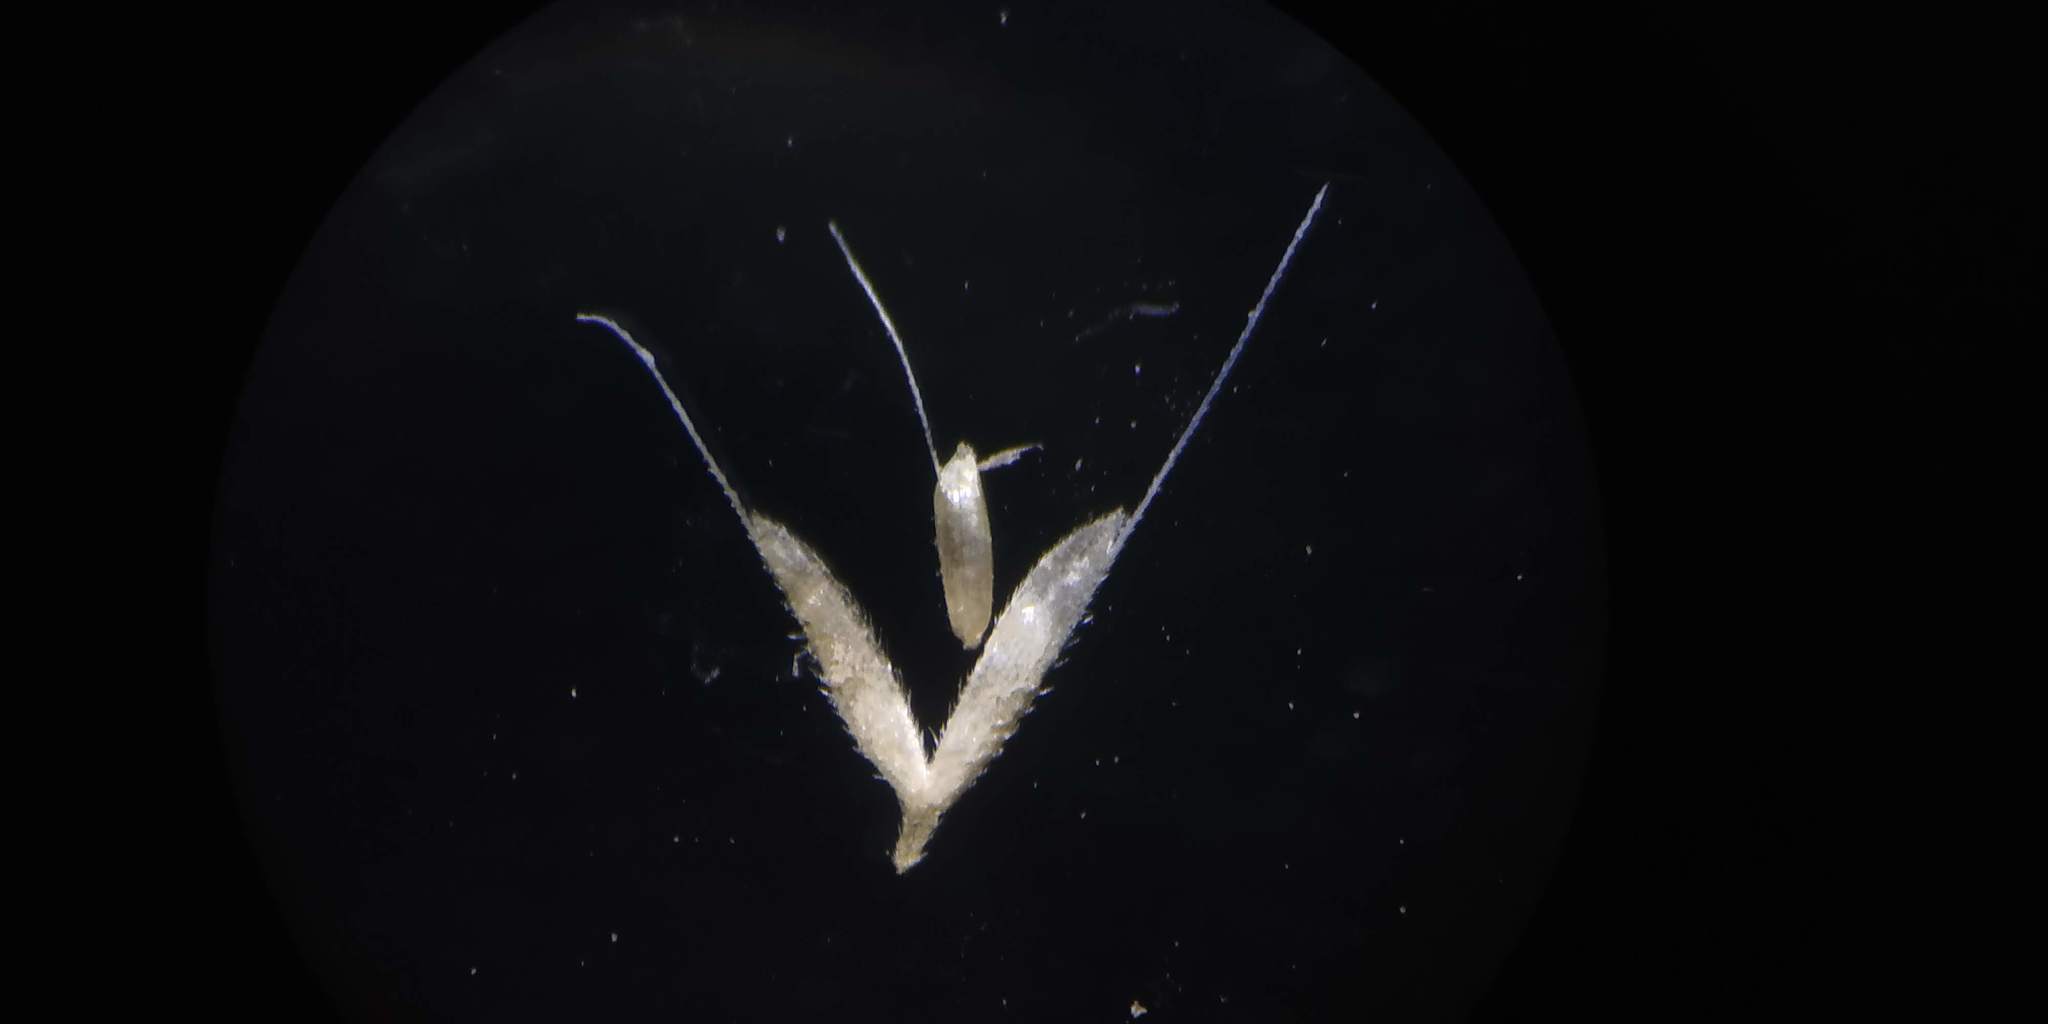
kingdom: Plantae
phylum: Tracheophyta
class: Liliopsida
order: Poales
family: Poaceae
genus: Polypogon
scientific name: Polypogon fugax
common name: Asia minor bluegrass
